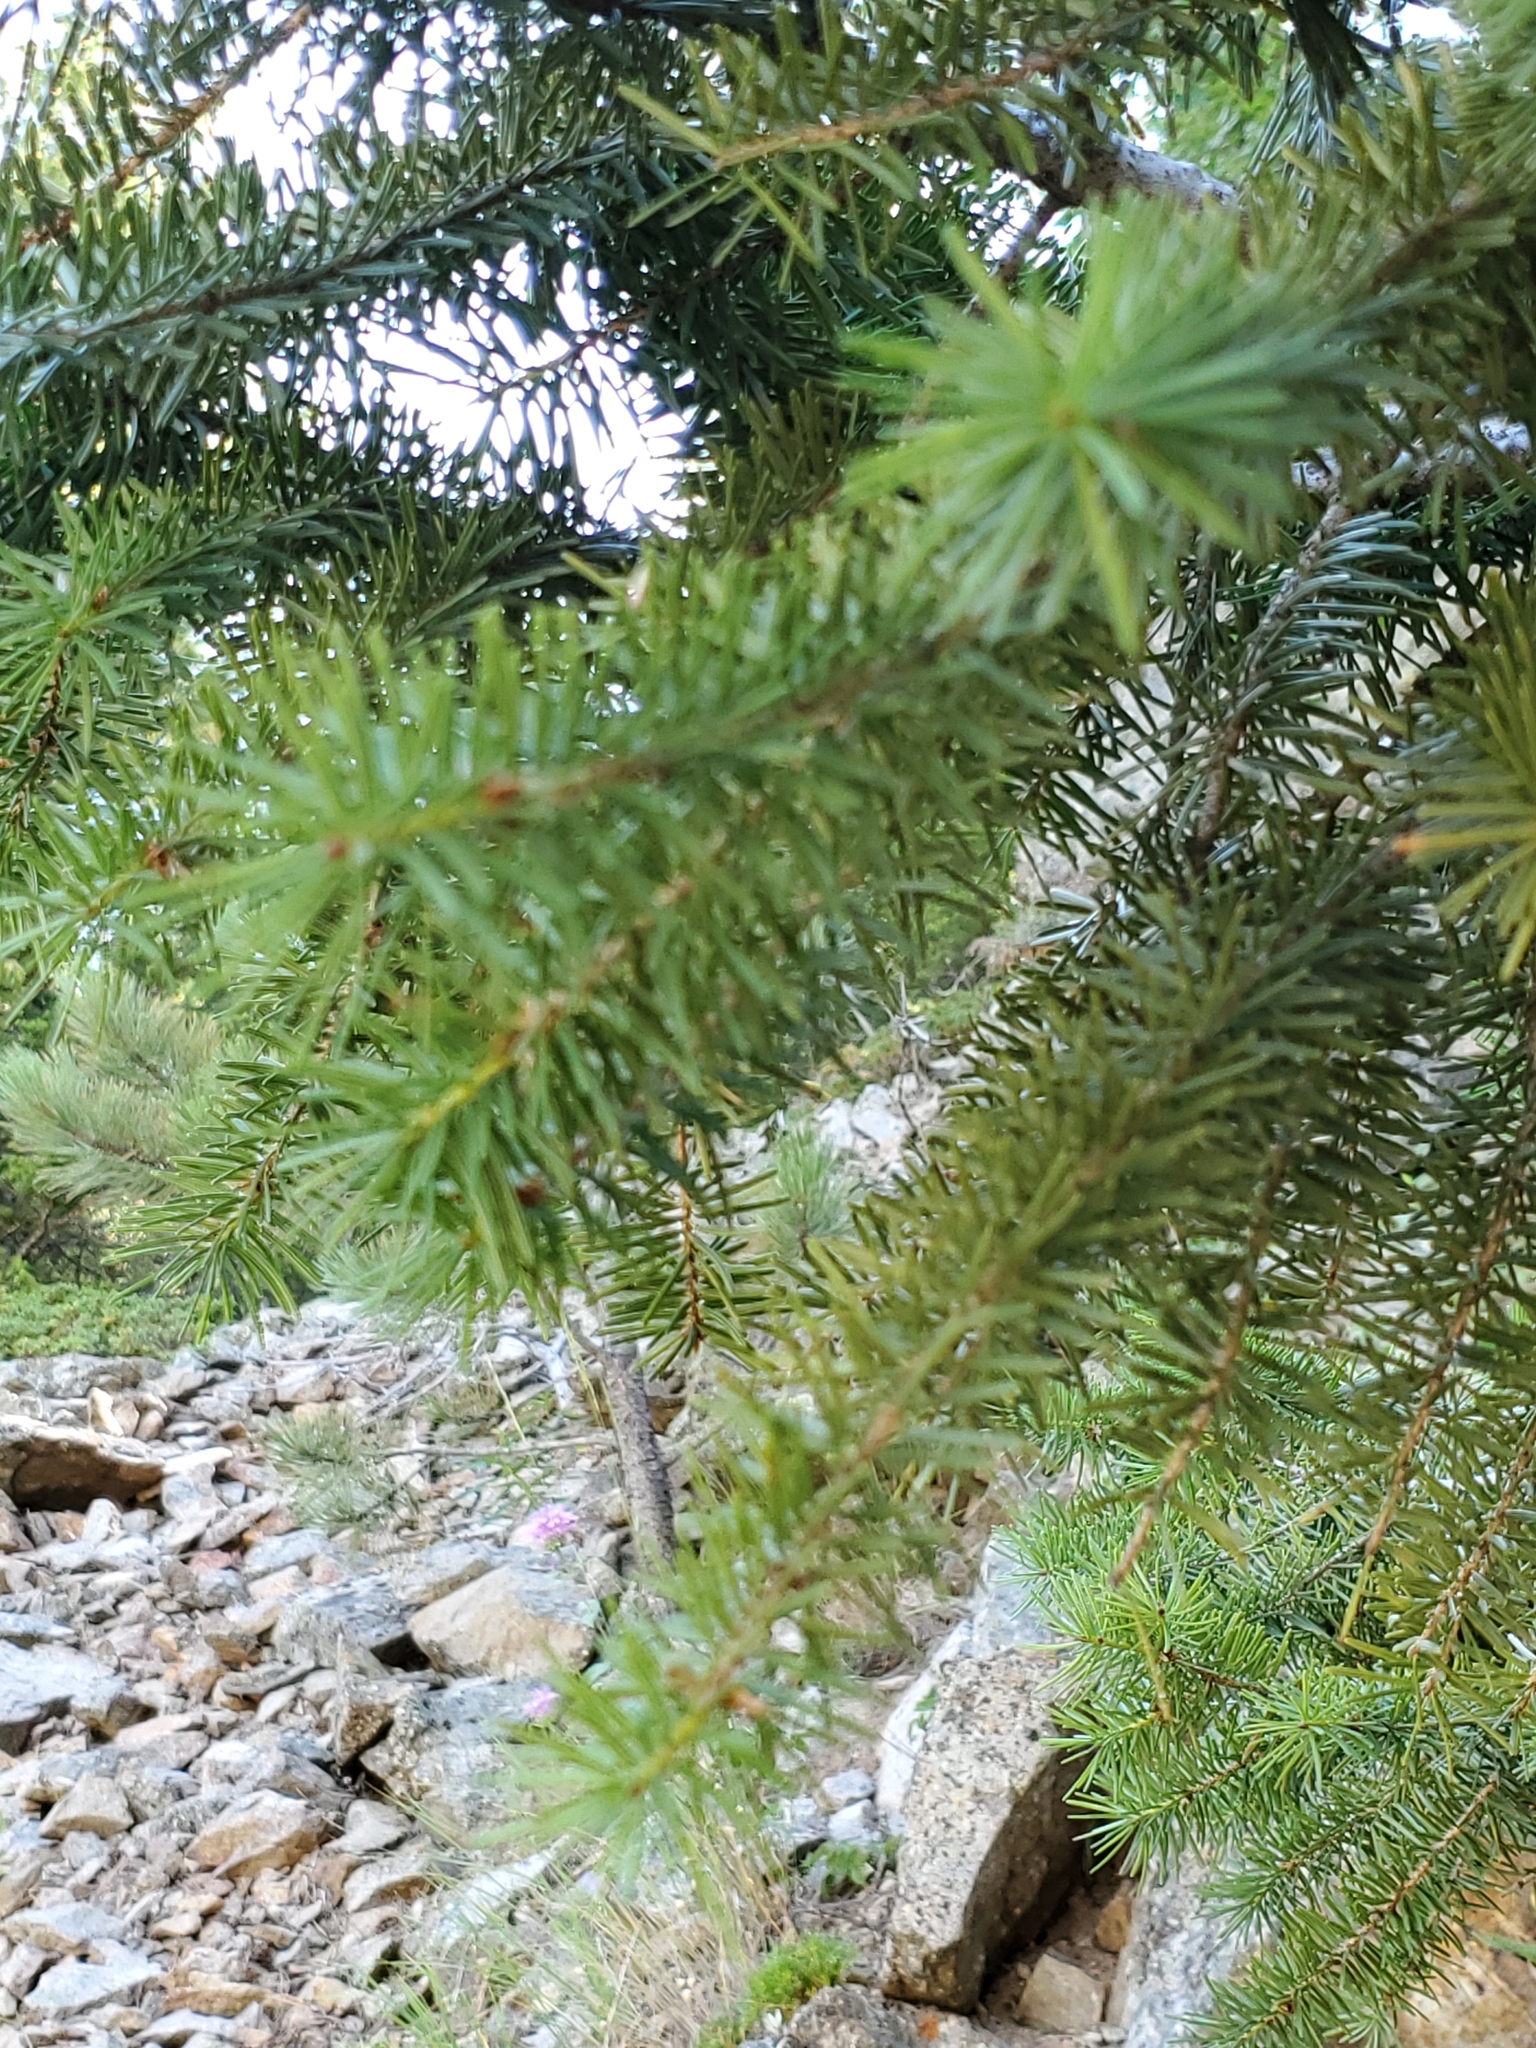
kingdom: Plantae
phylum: Tracheophyta
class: Pinopsida
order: Pinales
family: Pinaceae
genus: Pseudotsuga
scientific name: Pseudotsuga menziesii
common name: Douglas fir
